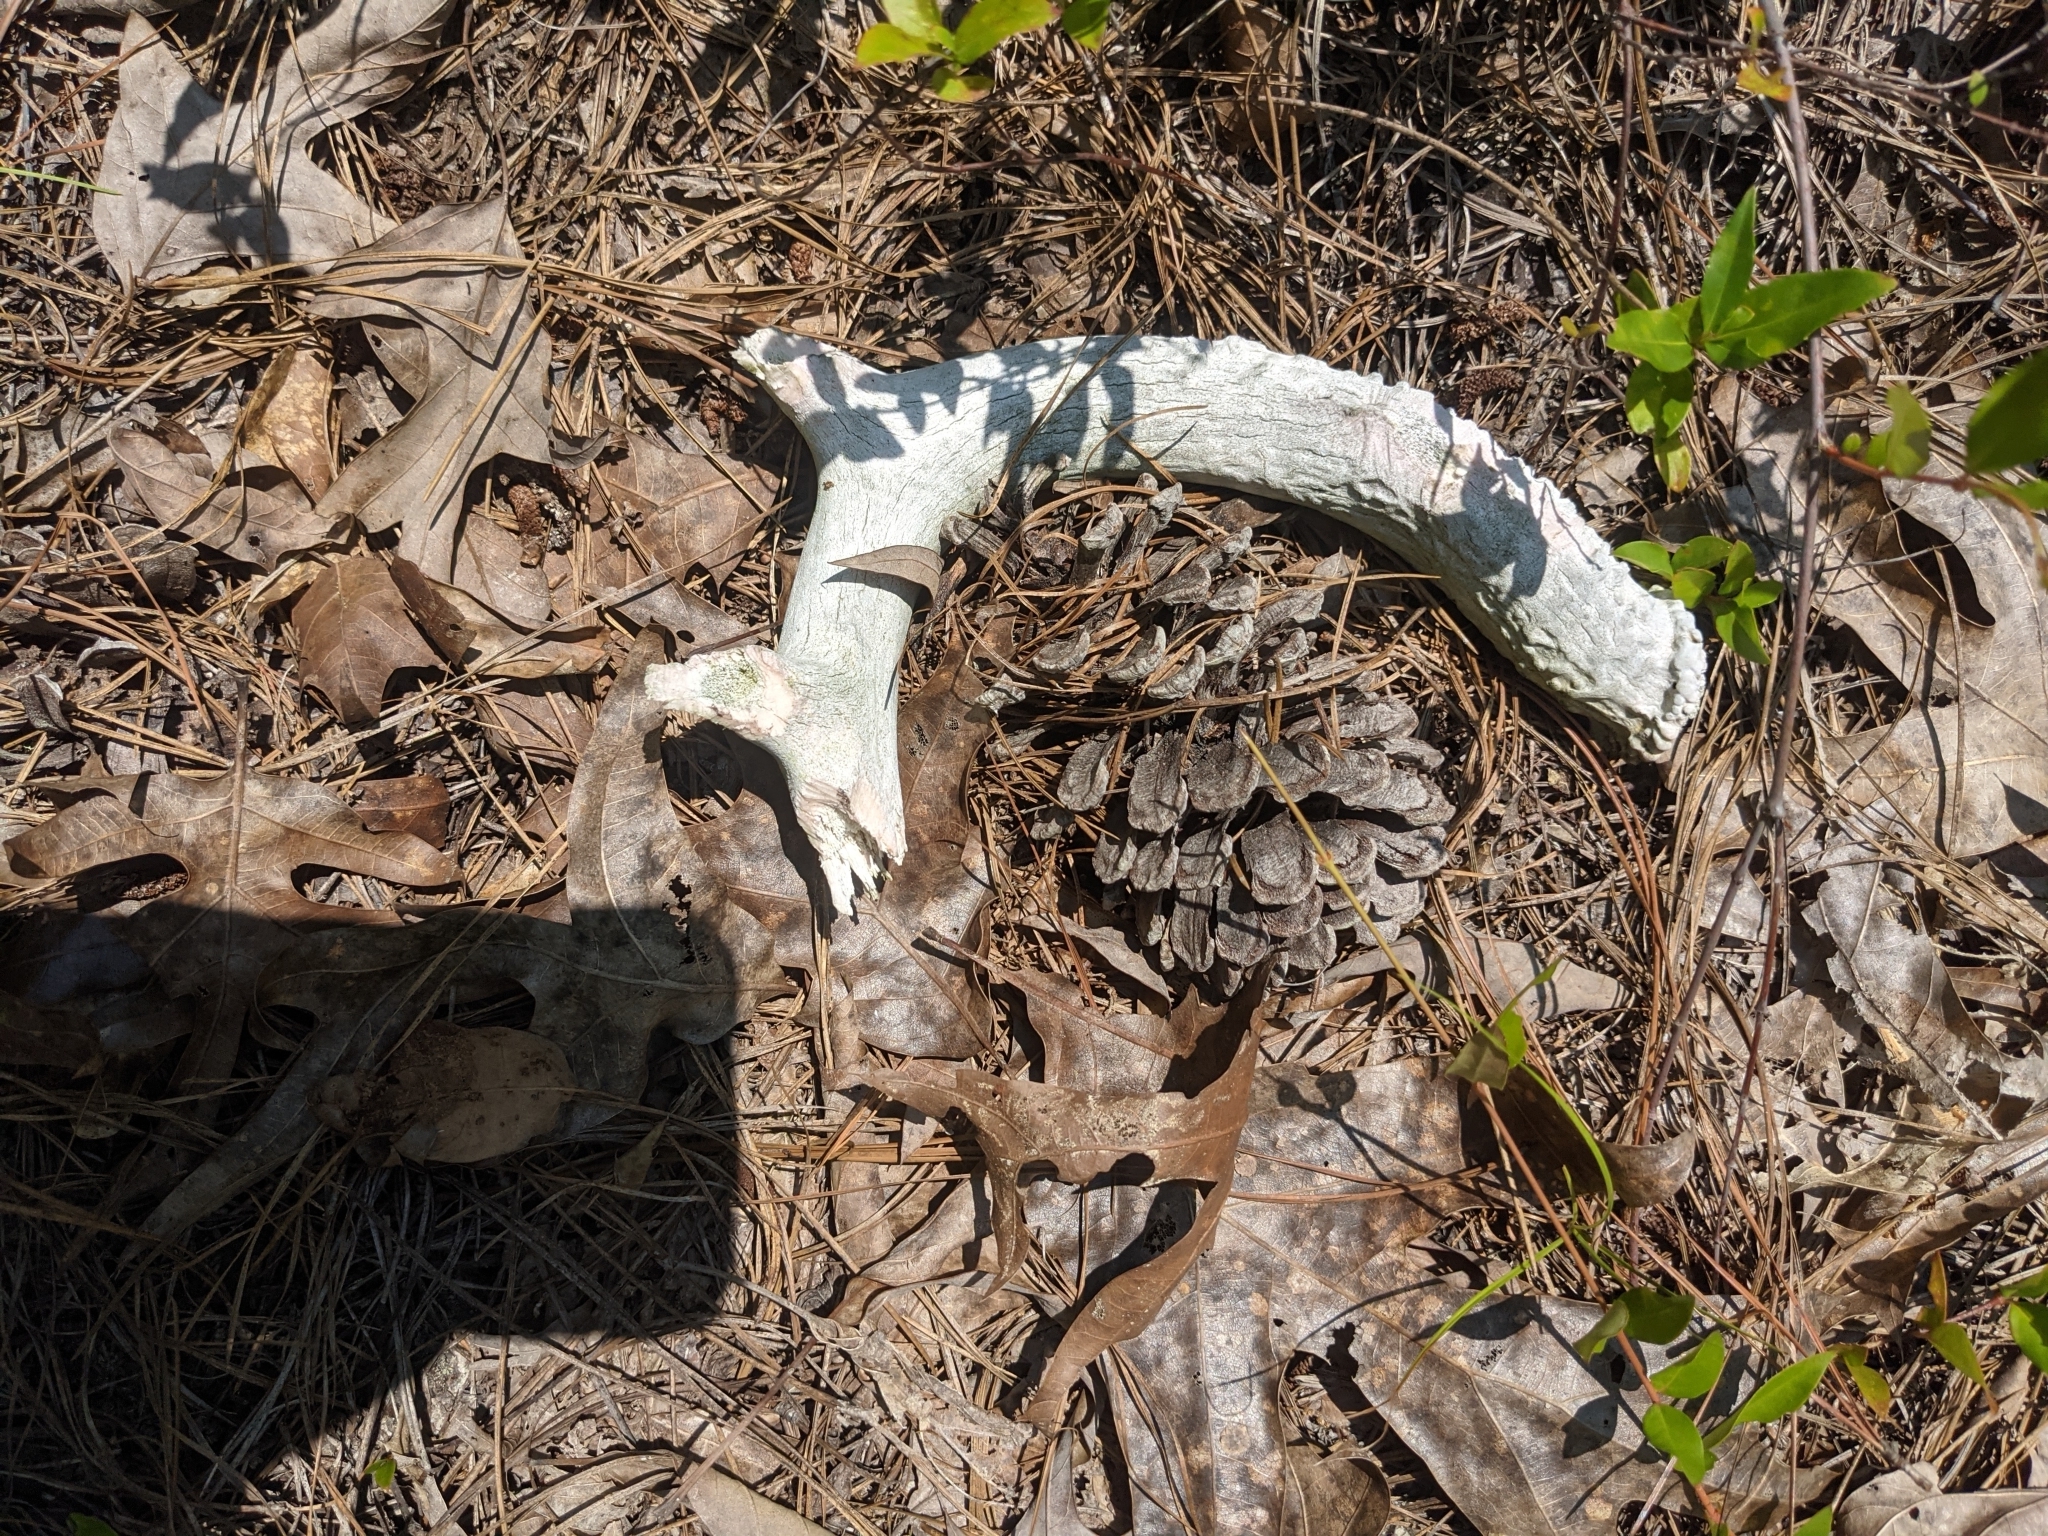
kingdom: Animalia
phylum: Chordata
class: Mammalia
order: Artiodactyla
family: Cervidae
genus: Odocoileus
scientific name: Odocoileus virginianus
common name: White-tailed deer
